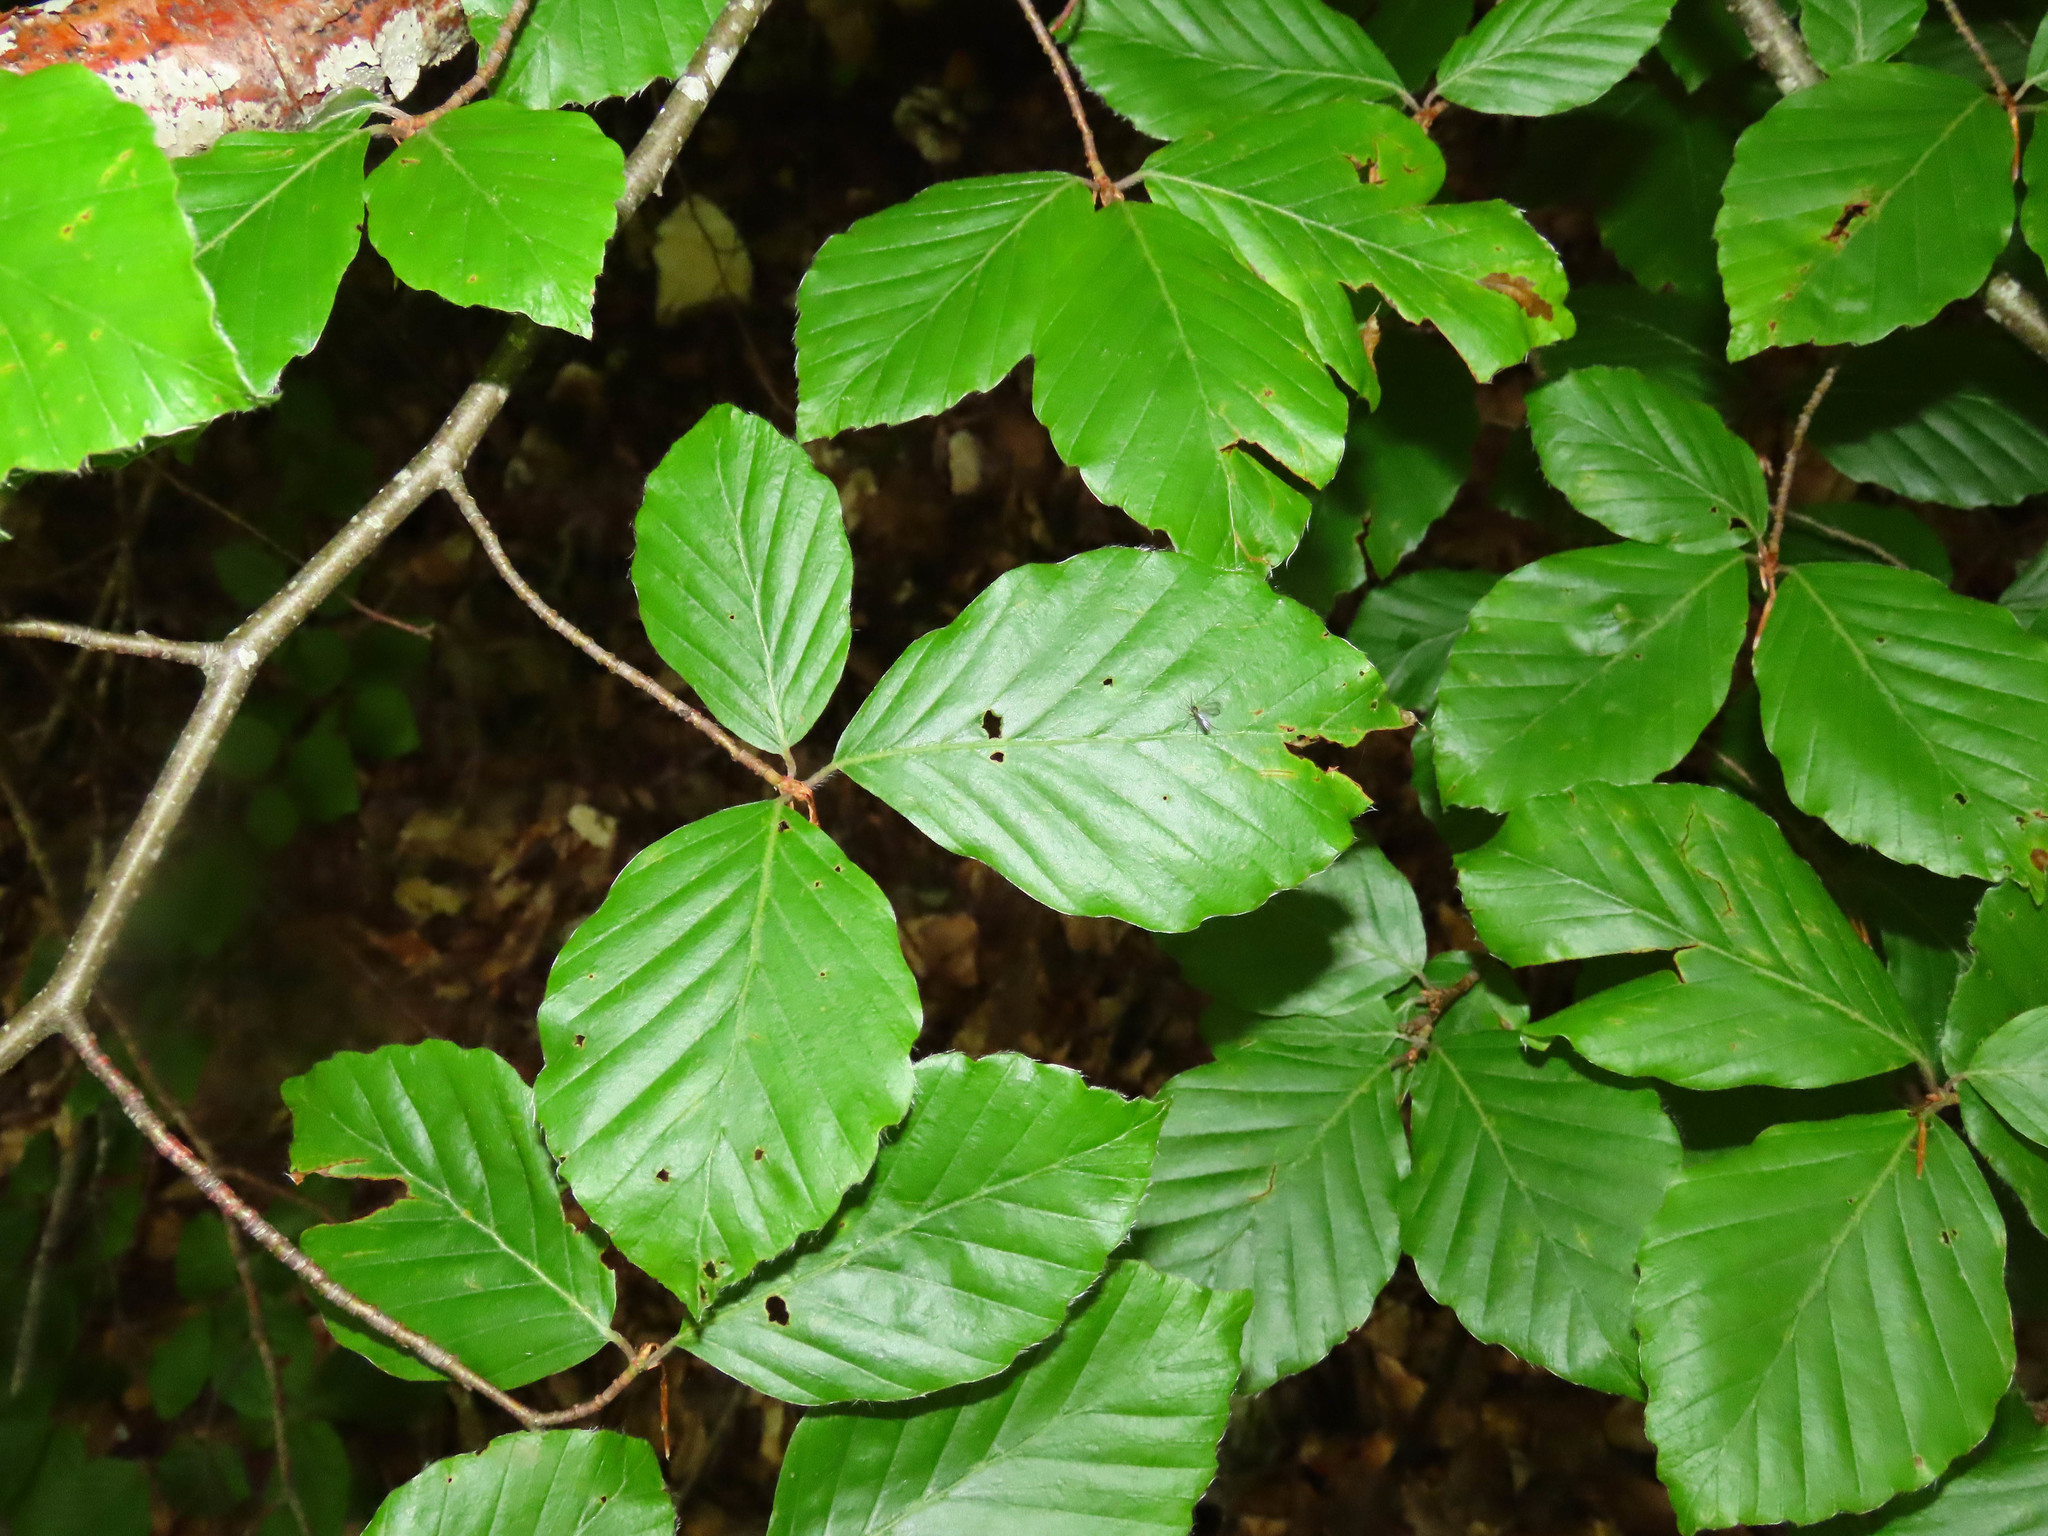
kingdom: Plantae
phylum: Tracheophyta
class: Magnoliopsida
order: Fagales
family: Fagaceae
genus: Fagus
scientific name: Fagus sylvatica
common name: Beech
